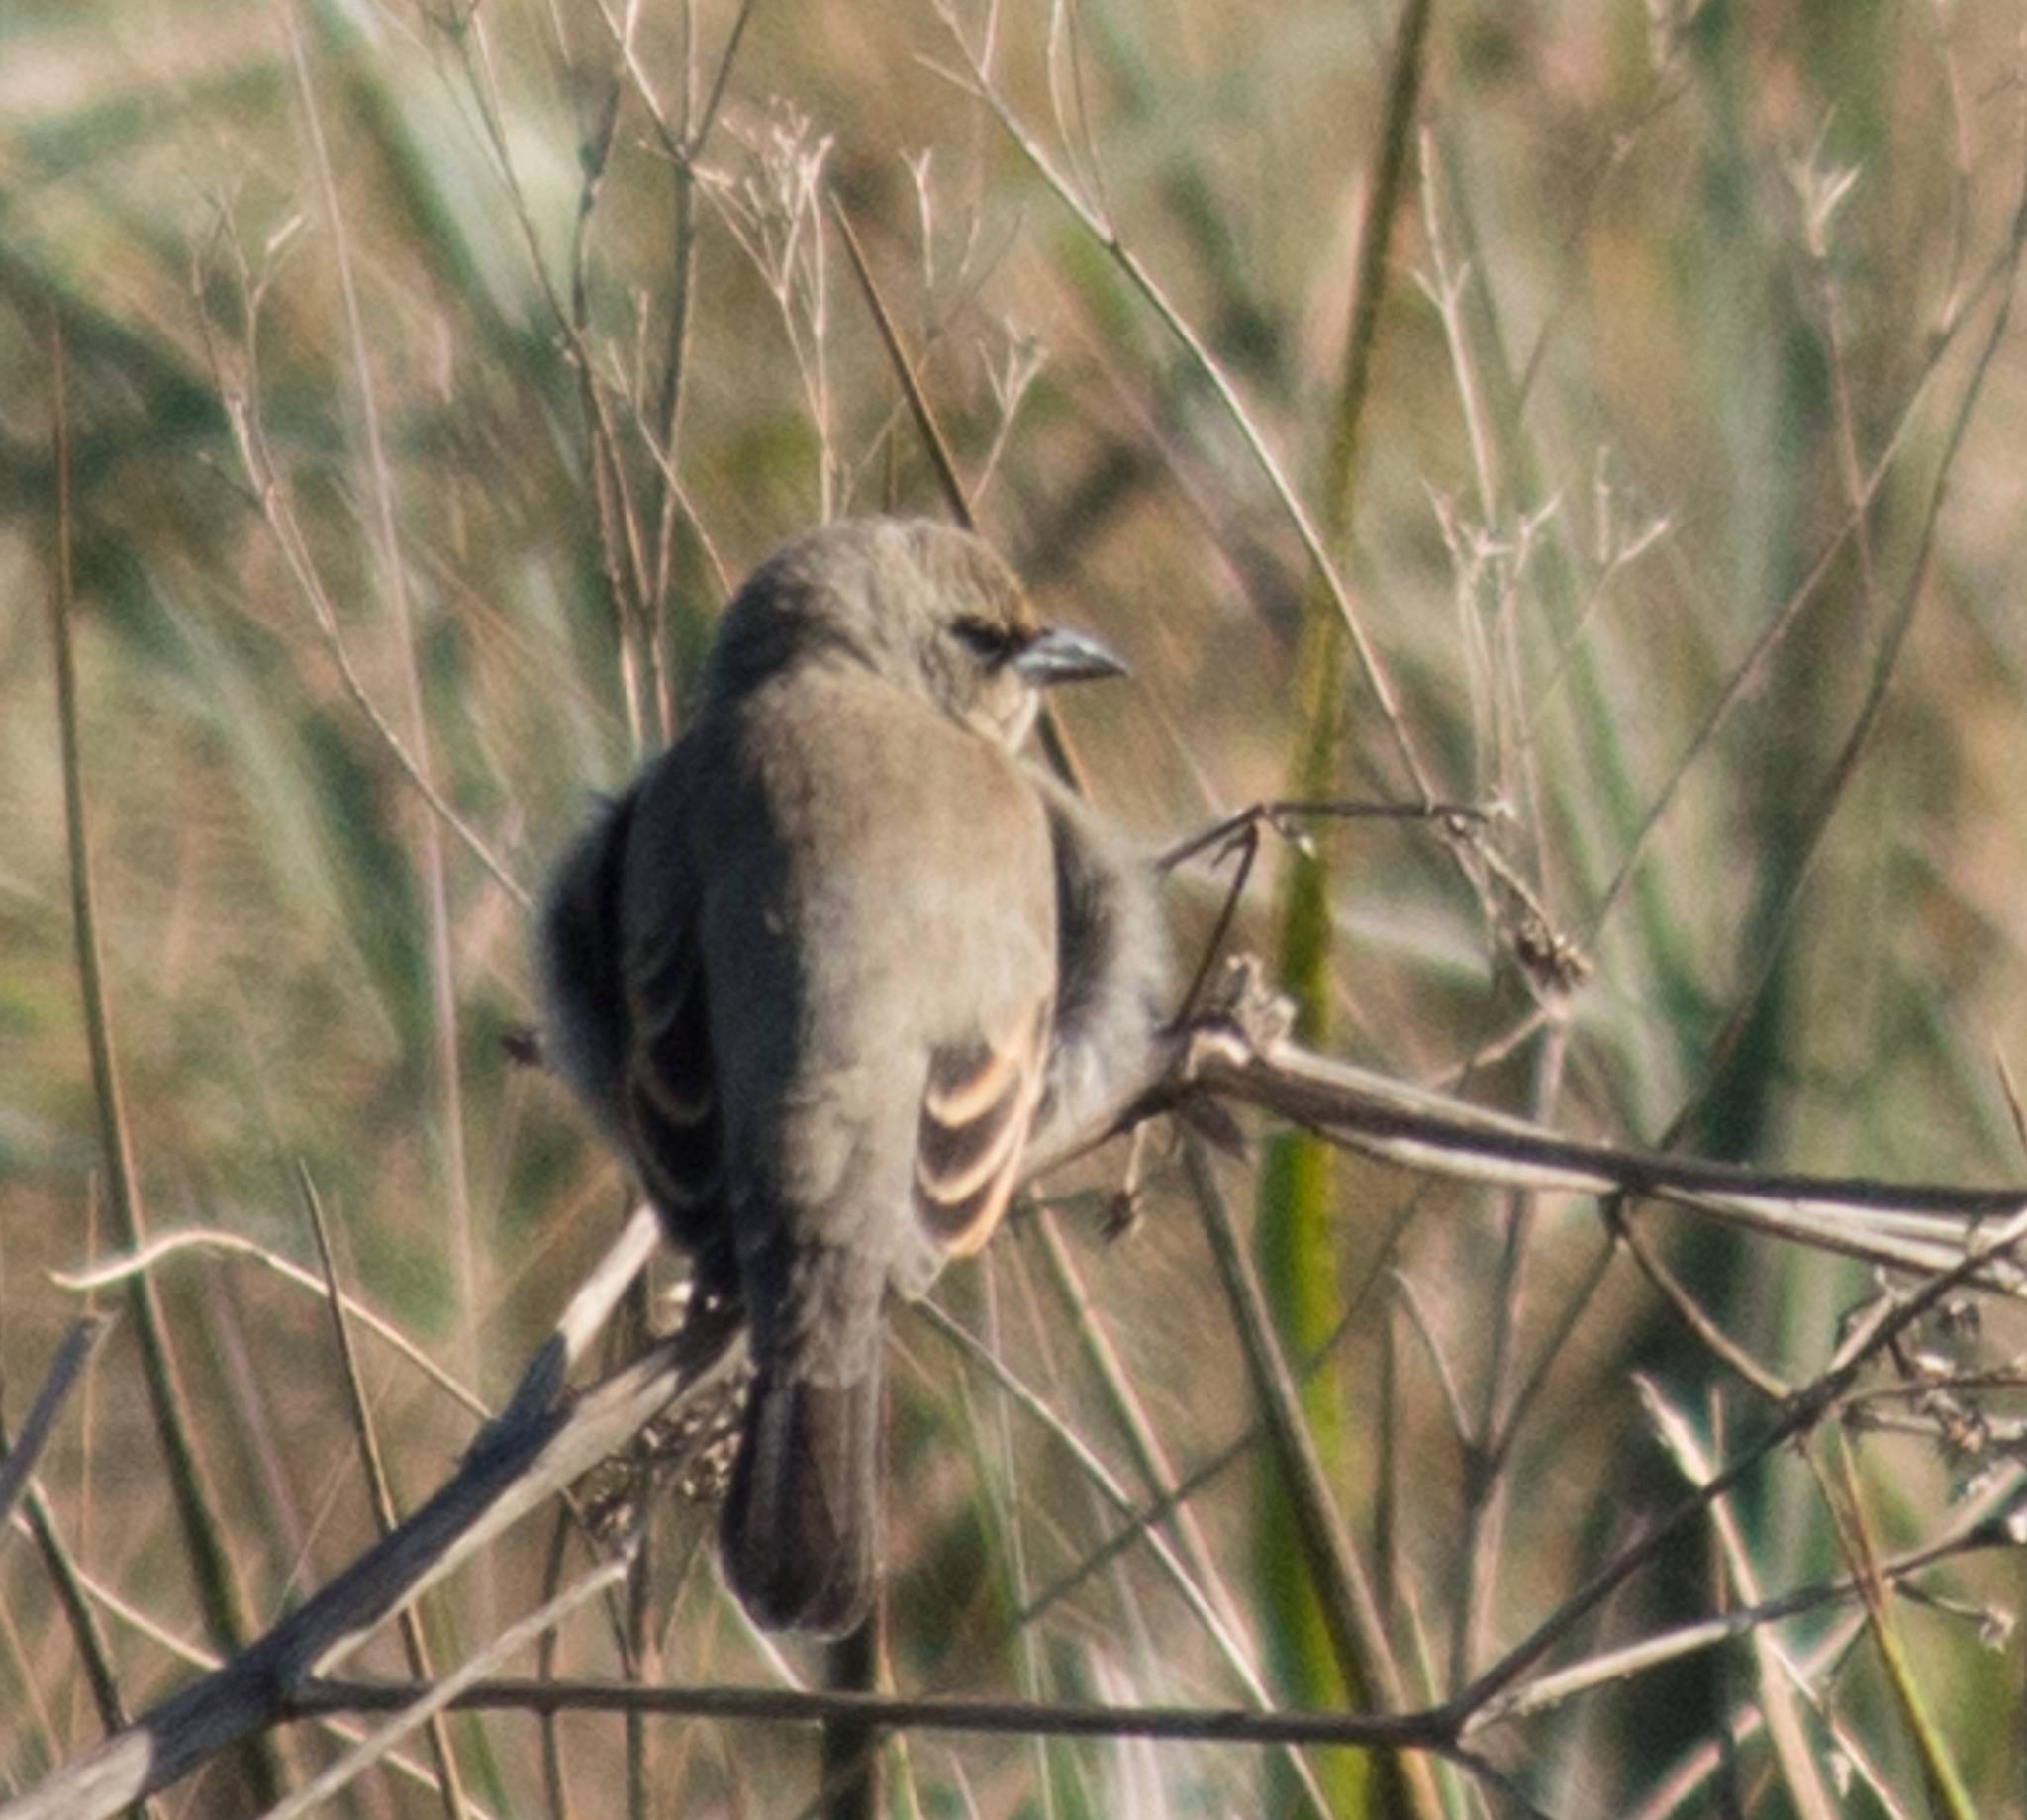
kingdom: Animalia
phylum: Chordata
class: Aves
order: Passeriformes
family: Icteridae
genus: Agelaioides
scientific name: Agelaioides badius
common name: Baywing
